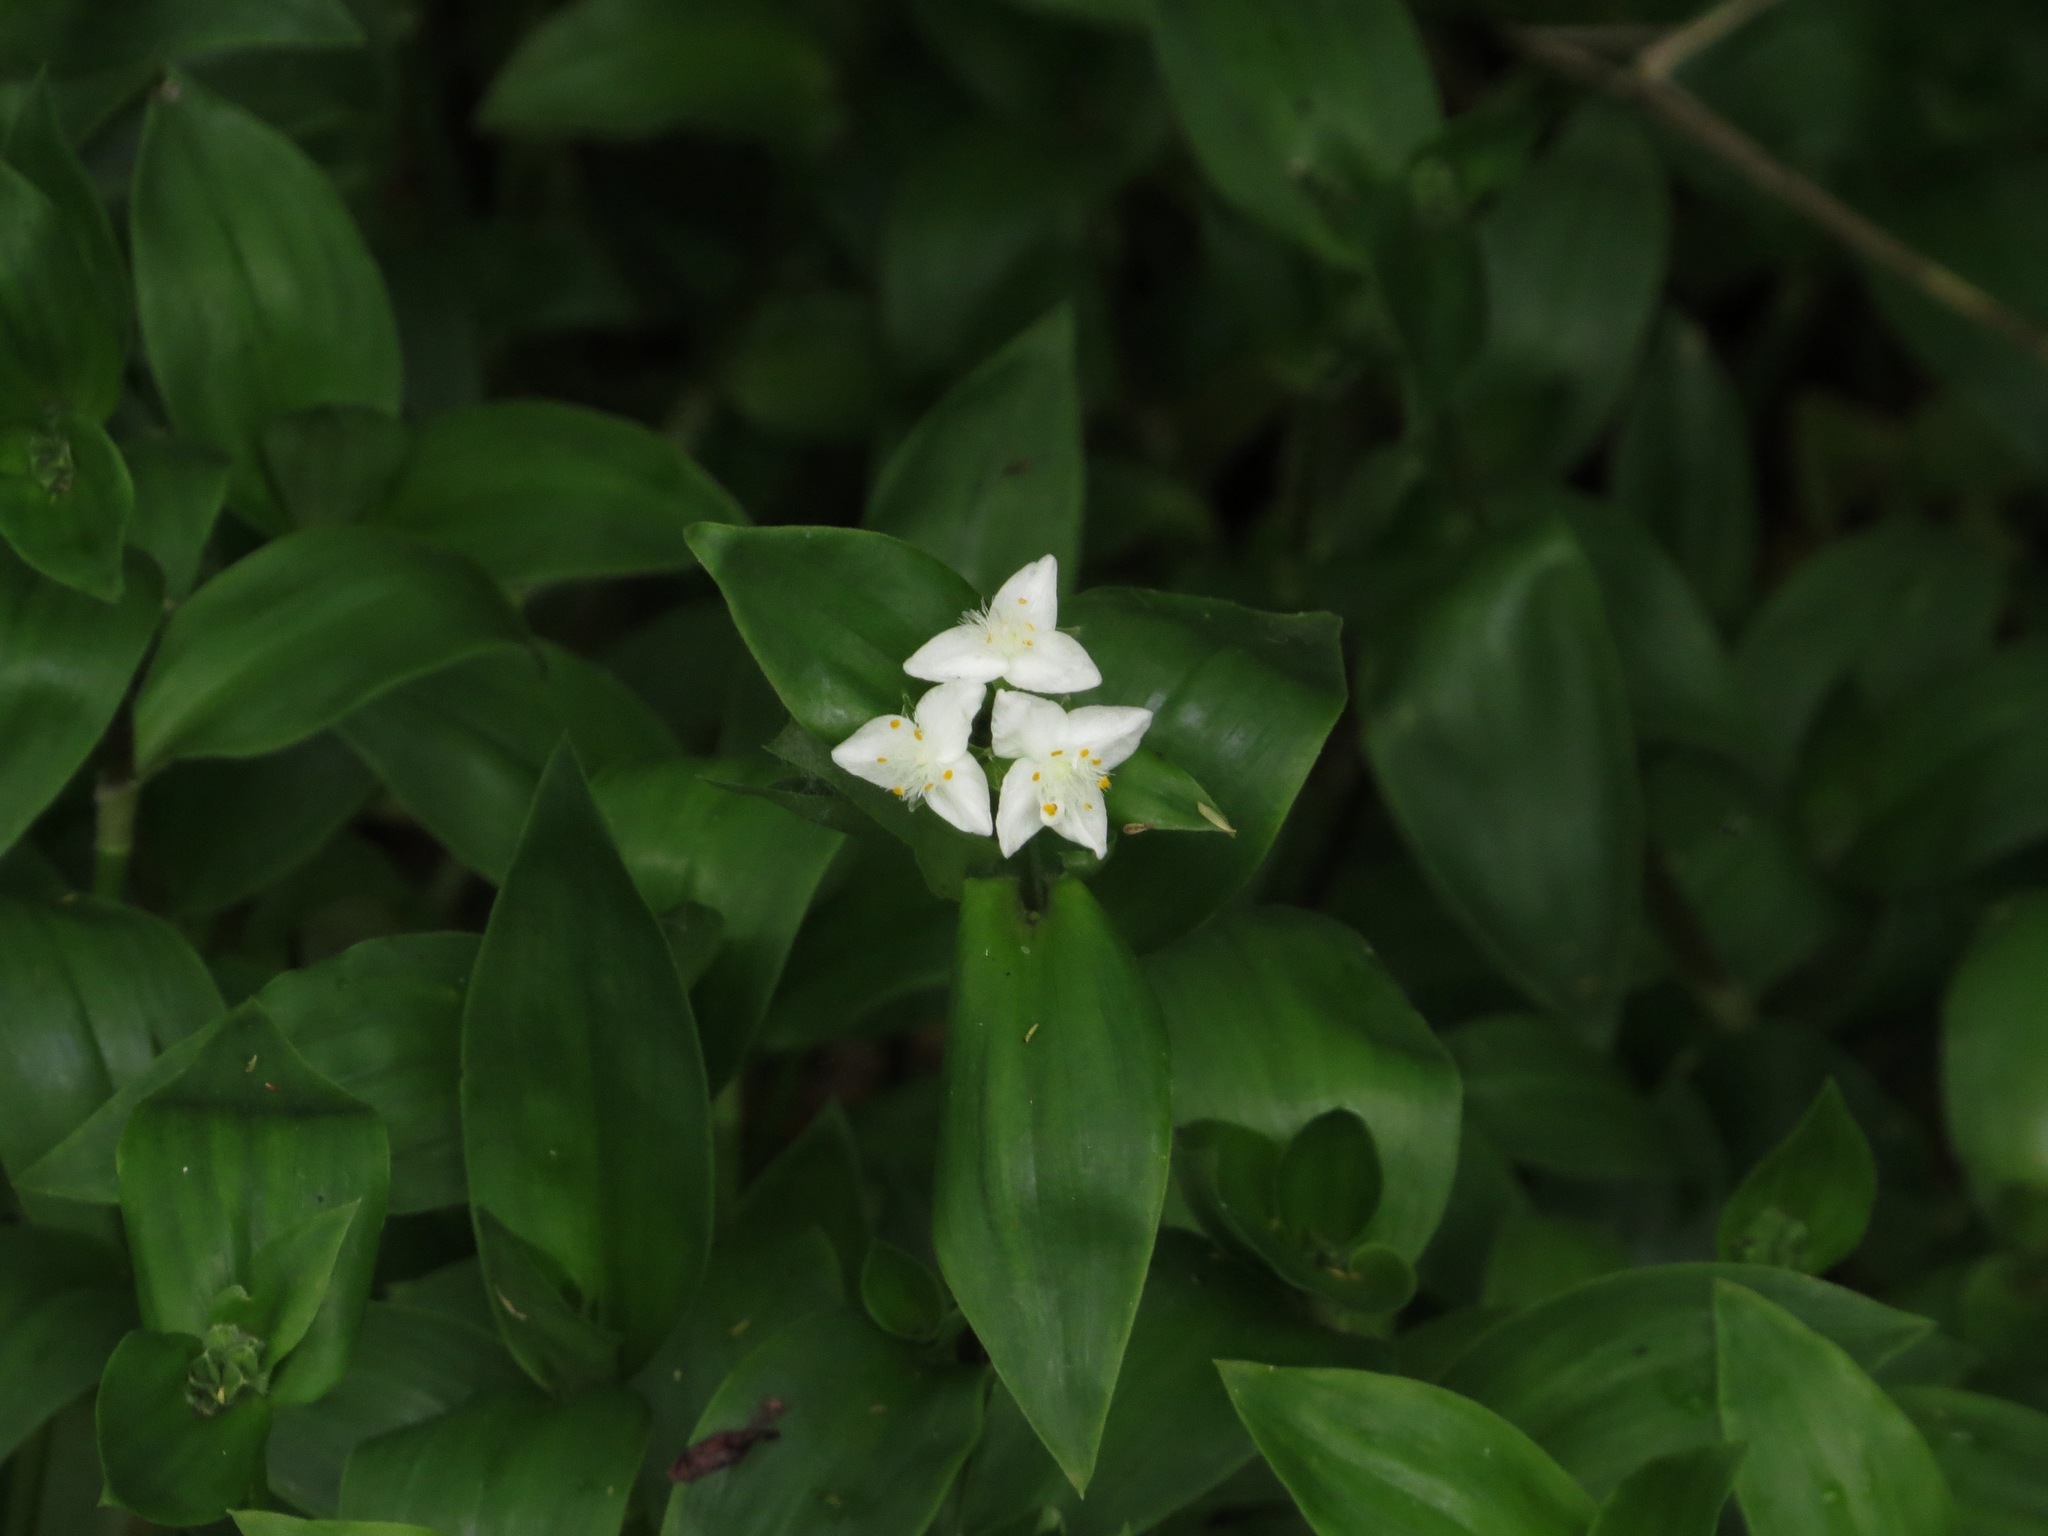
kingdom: Plantae
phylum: Tracheophyta
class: Liliopsida
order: Commelinales
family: Commelinaceae
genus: Tradescantia
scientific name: Tradescantia fluminensis
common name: Wandering-jew
